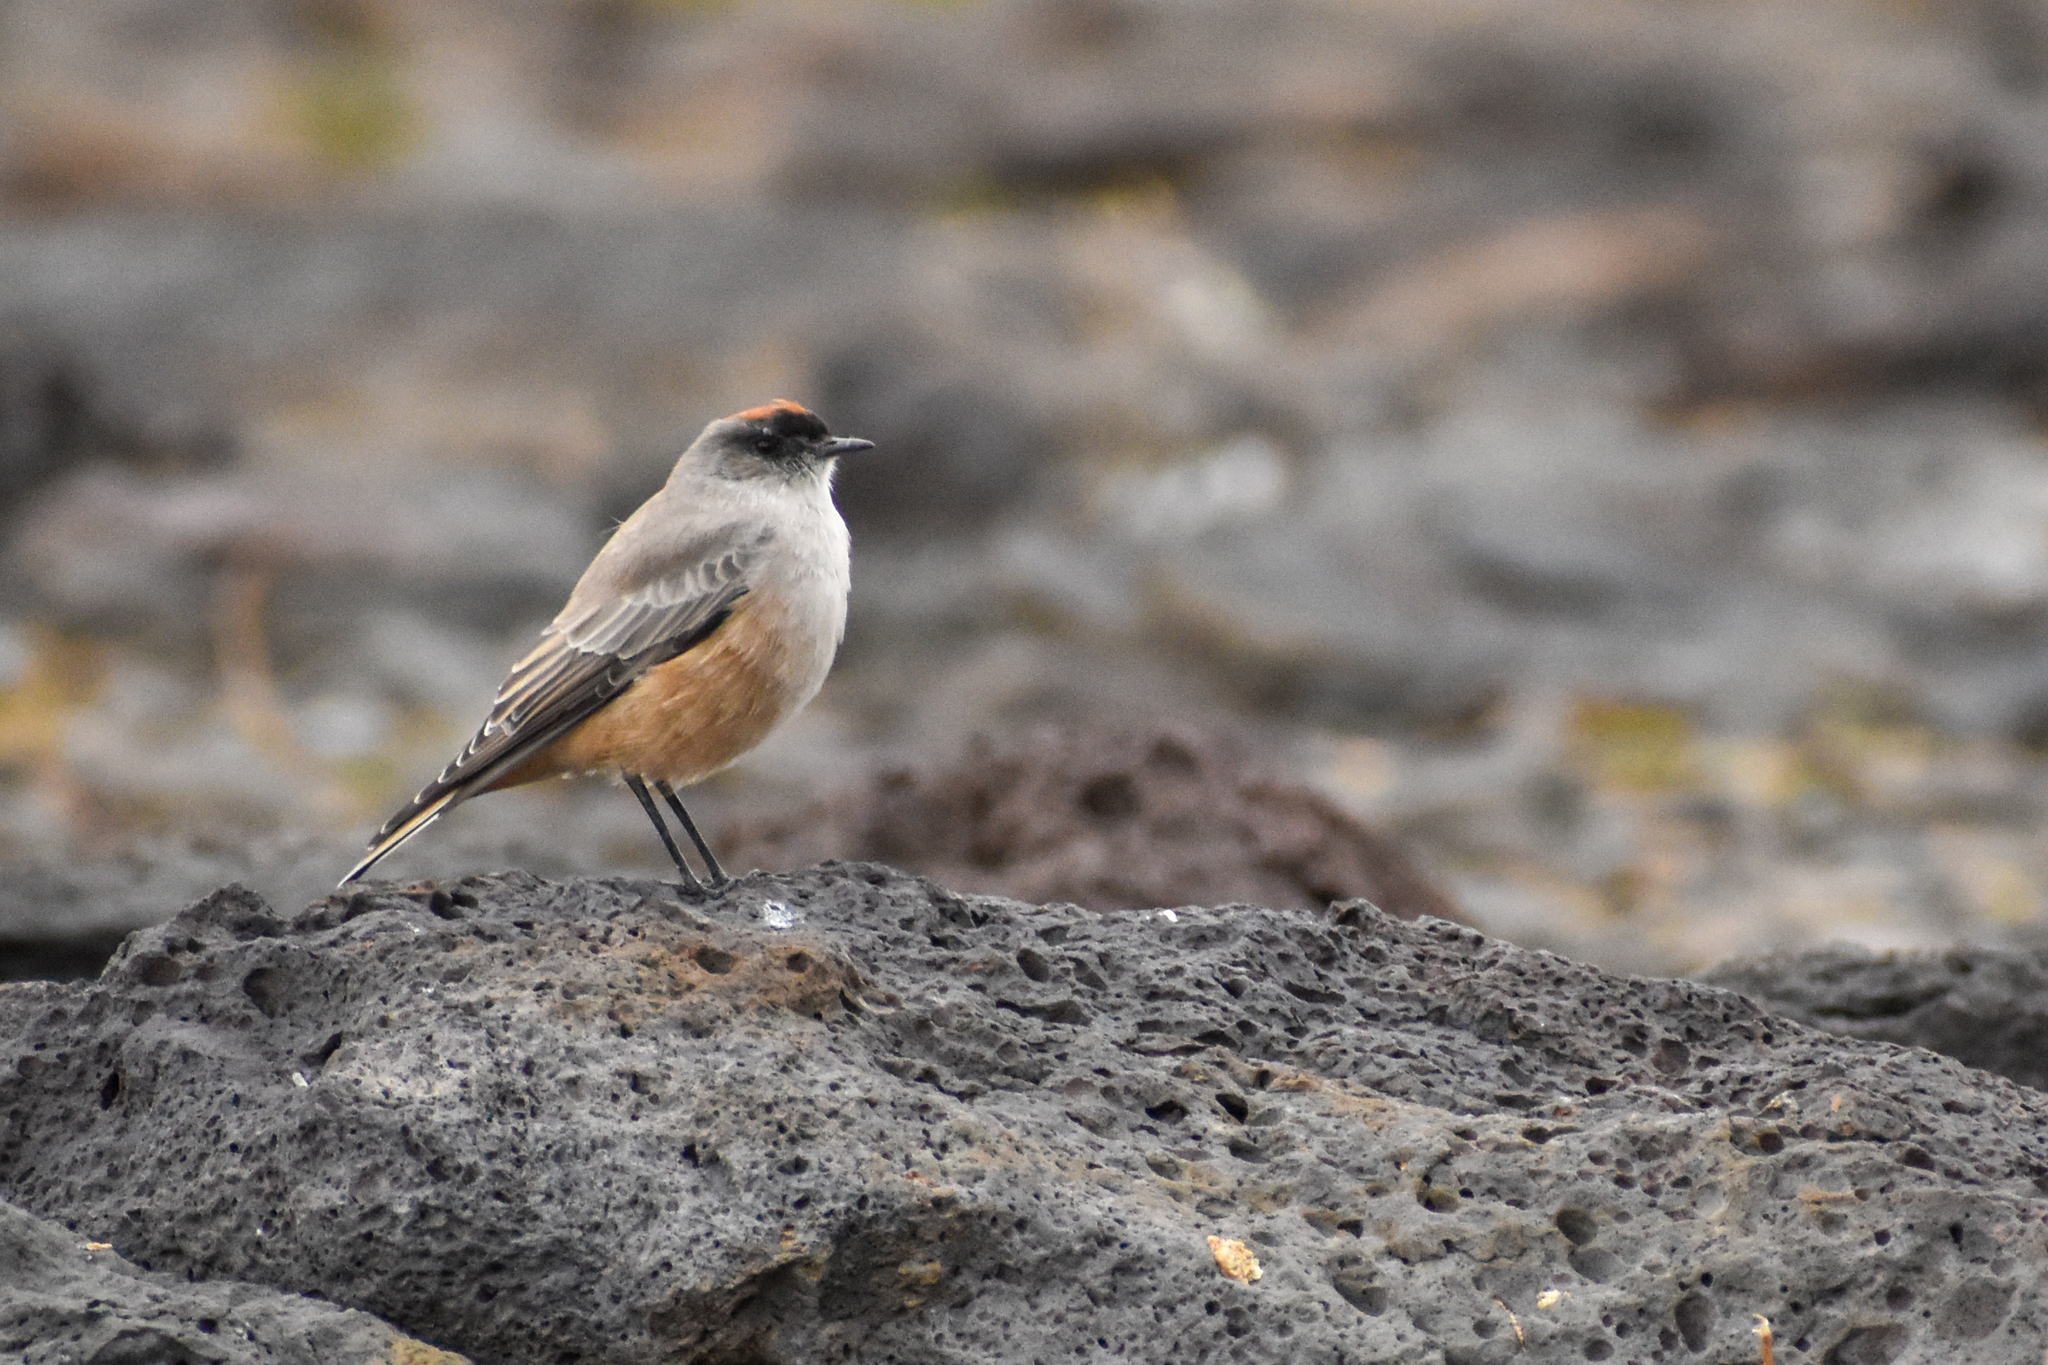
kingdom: Animalia
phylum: Chordata
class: Aves
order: Passeriformes
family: Tyrannidae
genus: Muscisaxicola
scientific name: Muscisaxicola capistratus
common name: Cinnamon-bellied ground tyrant
